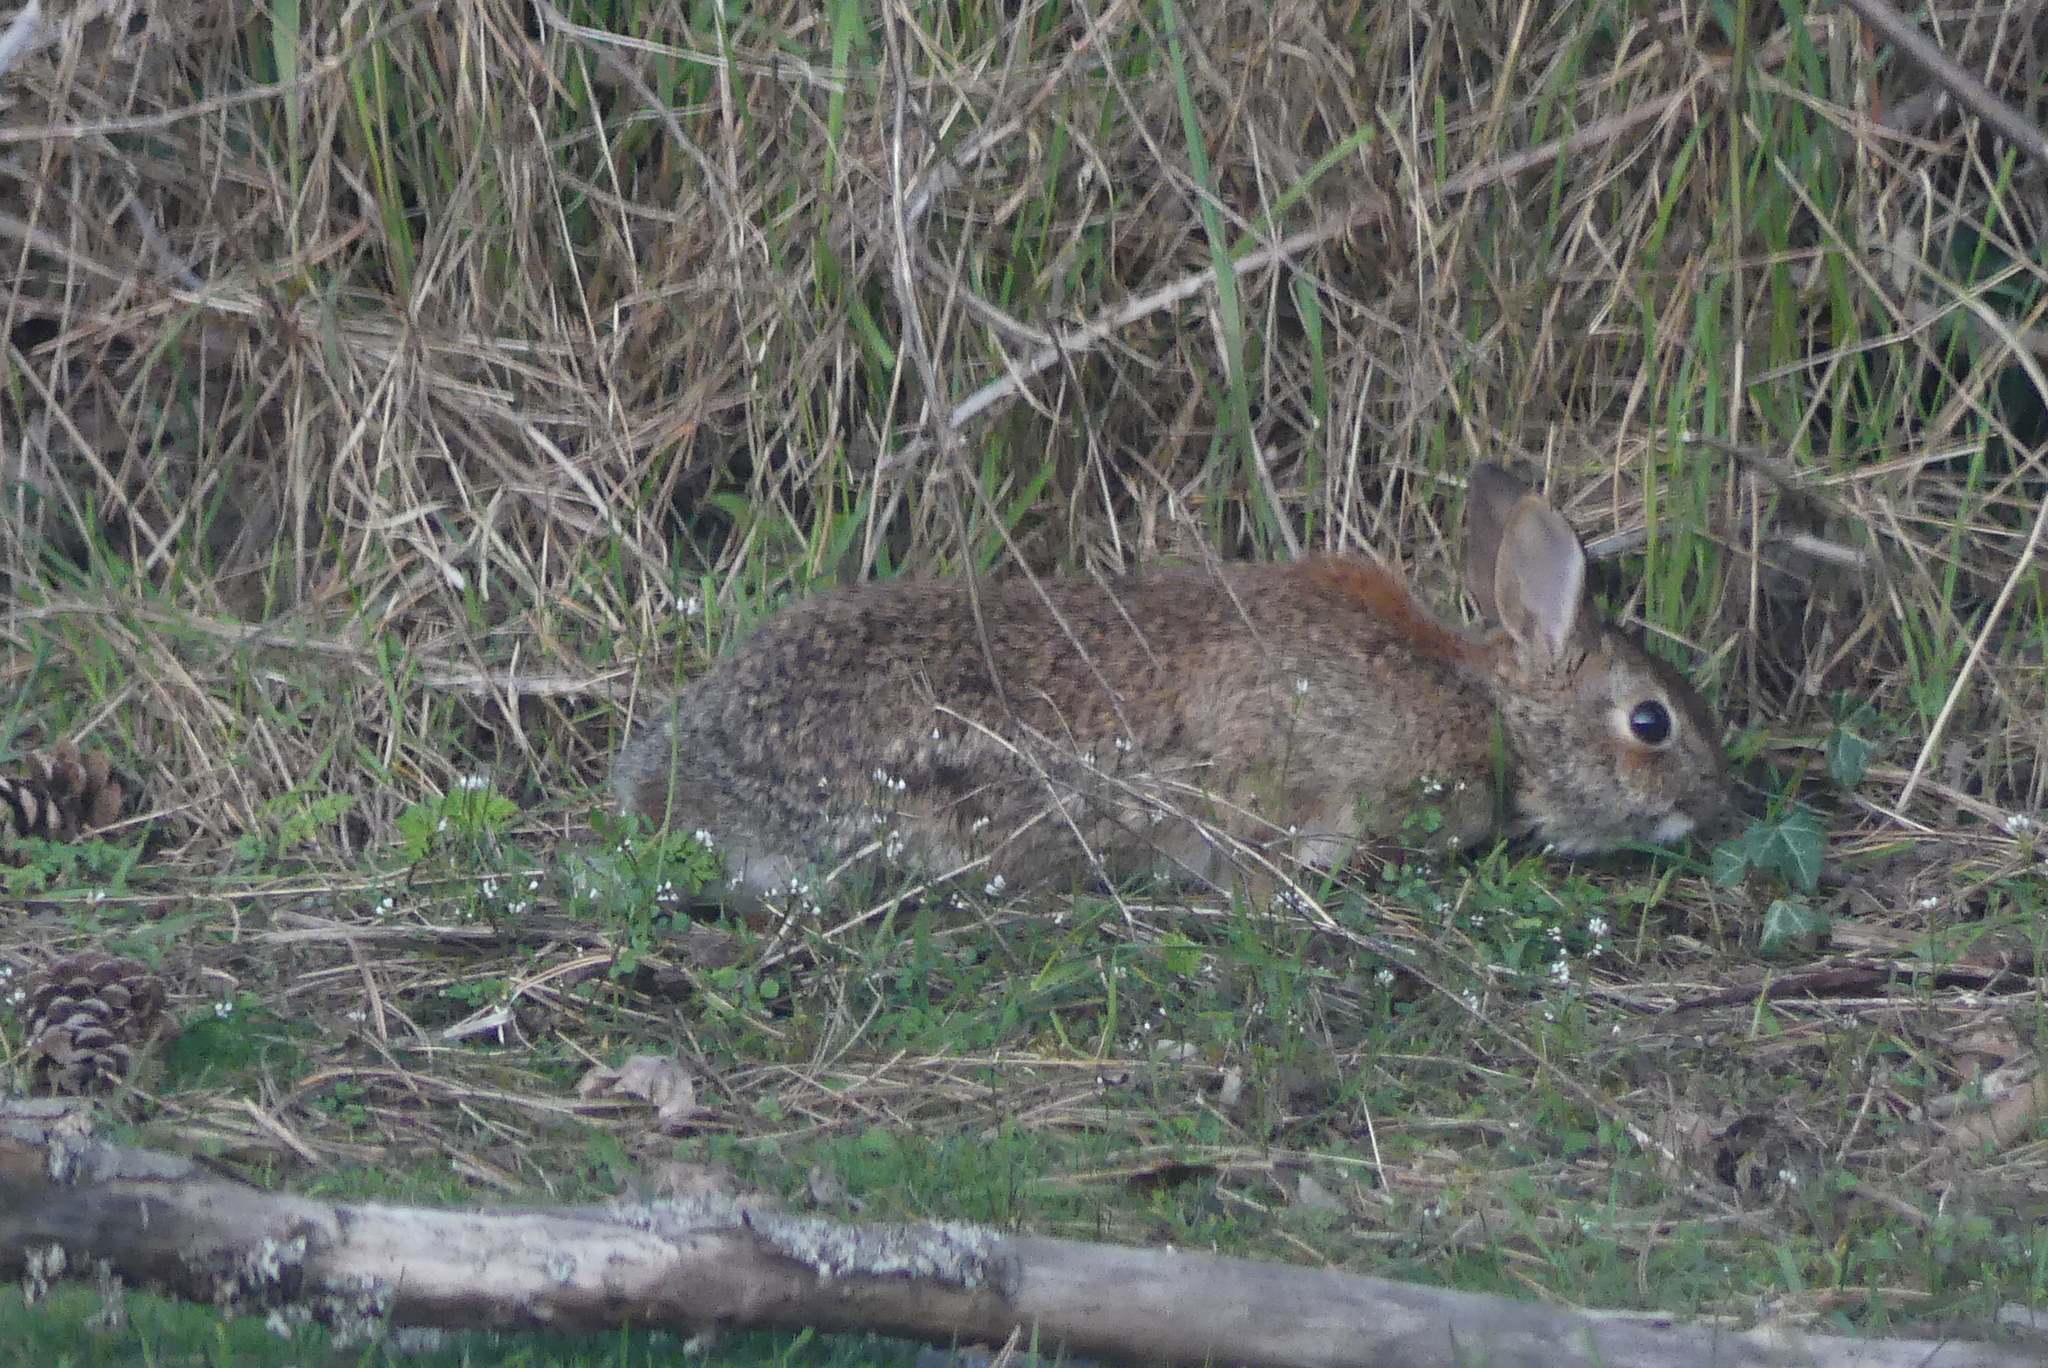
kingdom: Animalia
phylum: Chordata
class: Mammalia
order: Lagomorpha
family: Leporidae
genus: Sylvilagus
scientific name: Sylvilagus floridanus
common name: Eastern cottontail
